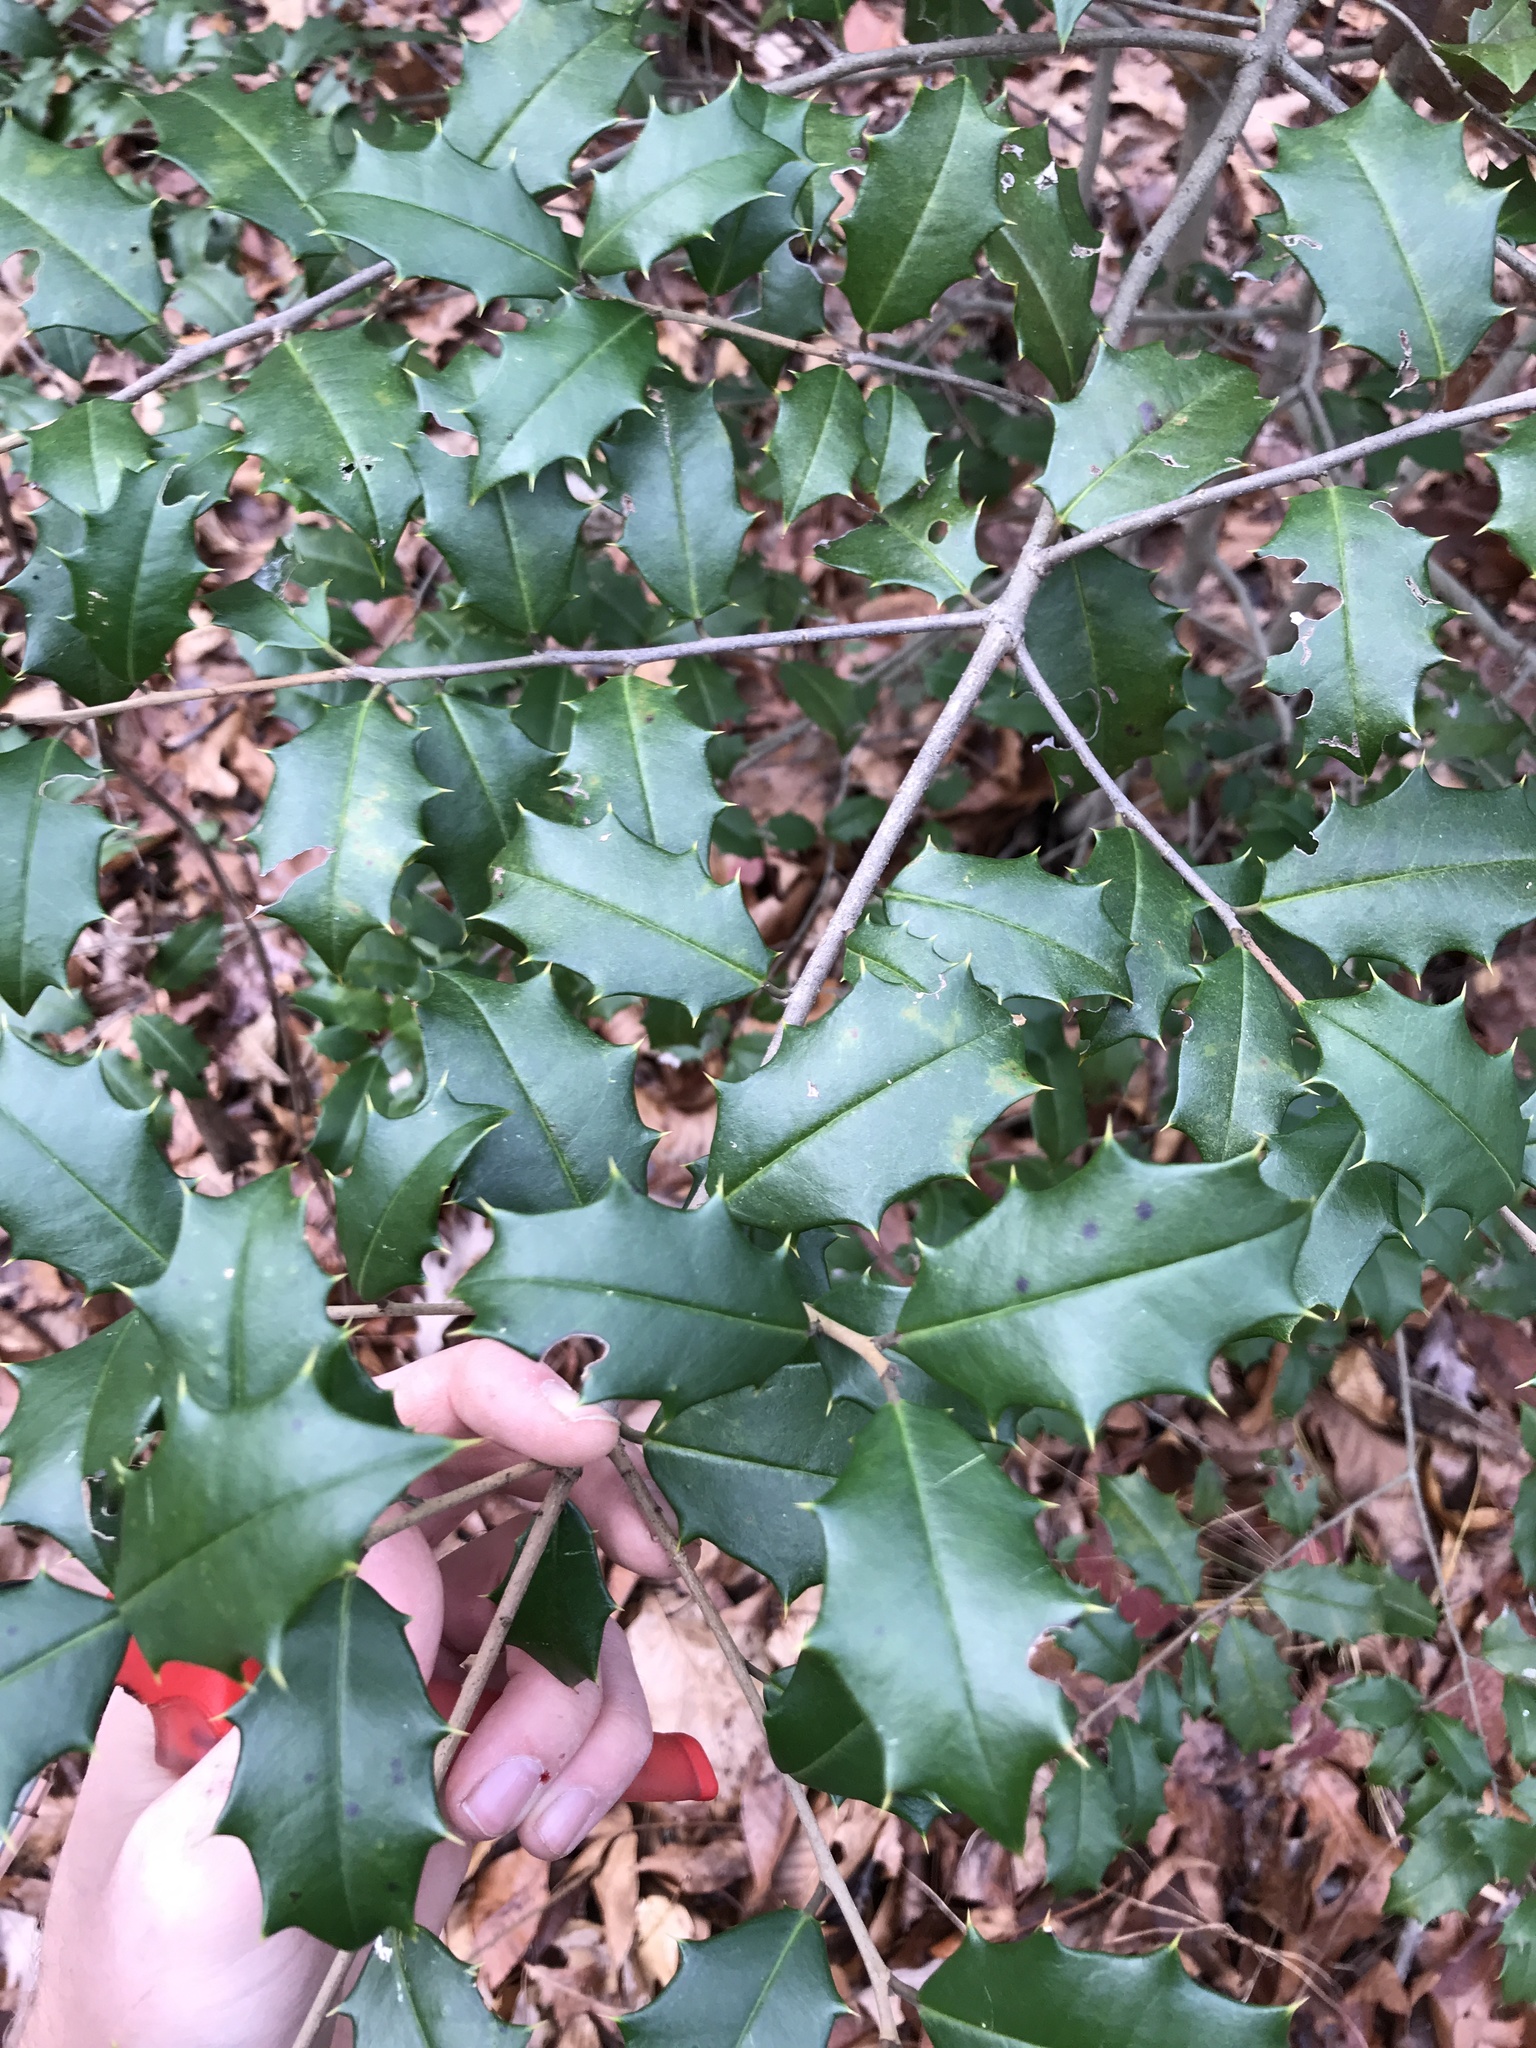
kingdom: Plantae
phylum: Tracheophyta
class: Magnoliopsida
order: Aquifoliales
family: Aquifoliaceae
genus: Ilex
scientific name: Ilex opaca
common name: American holly
